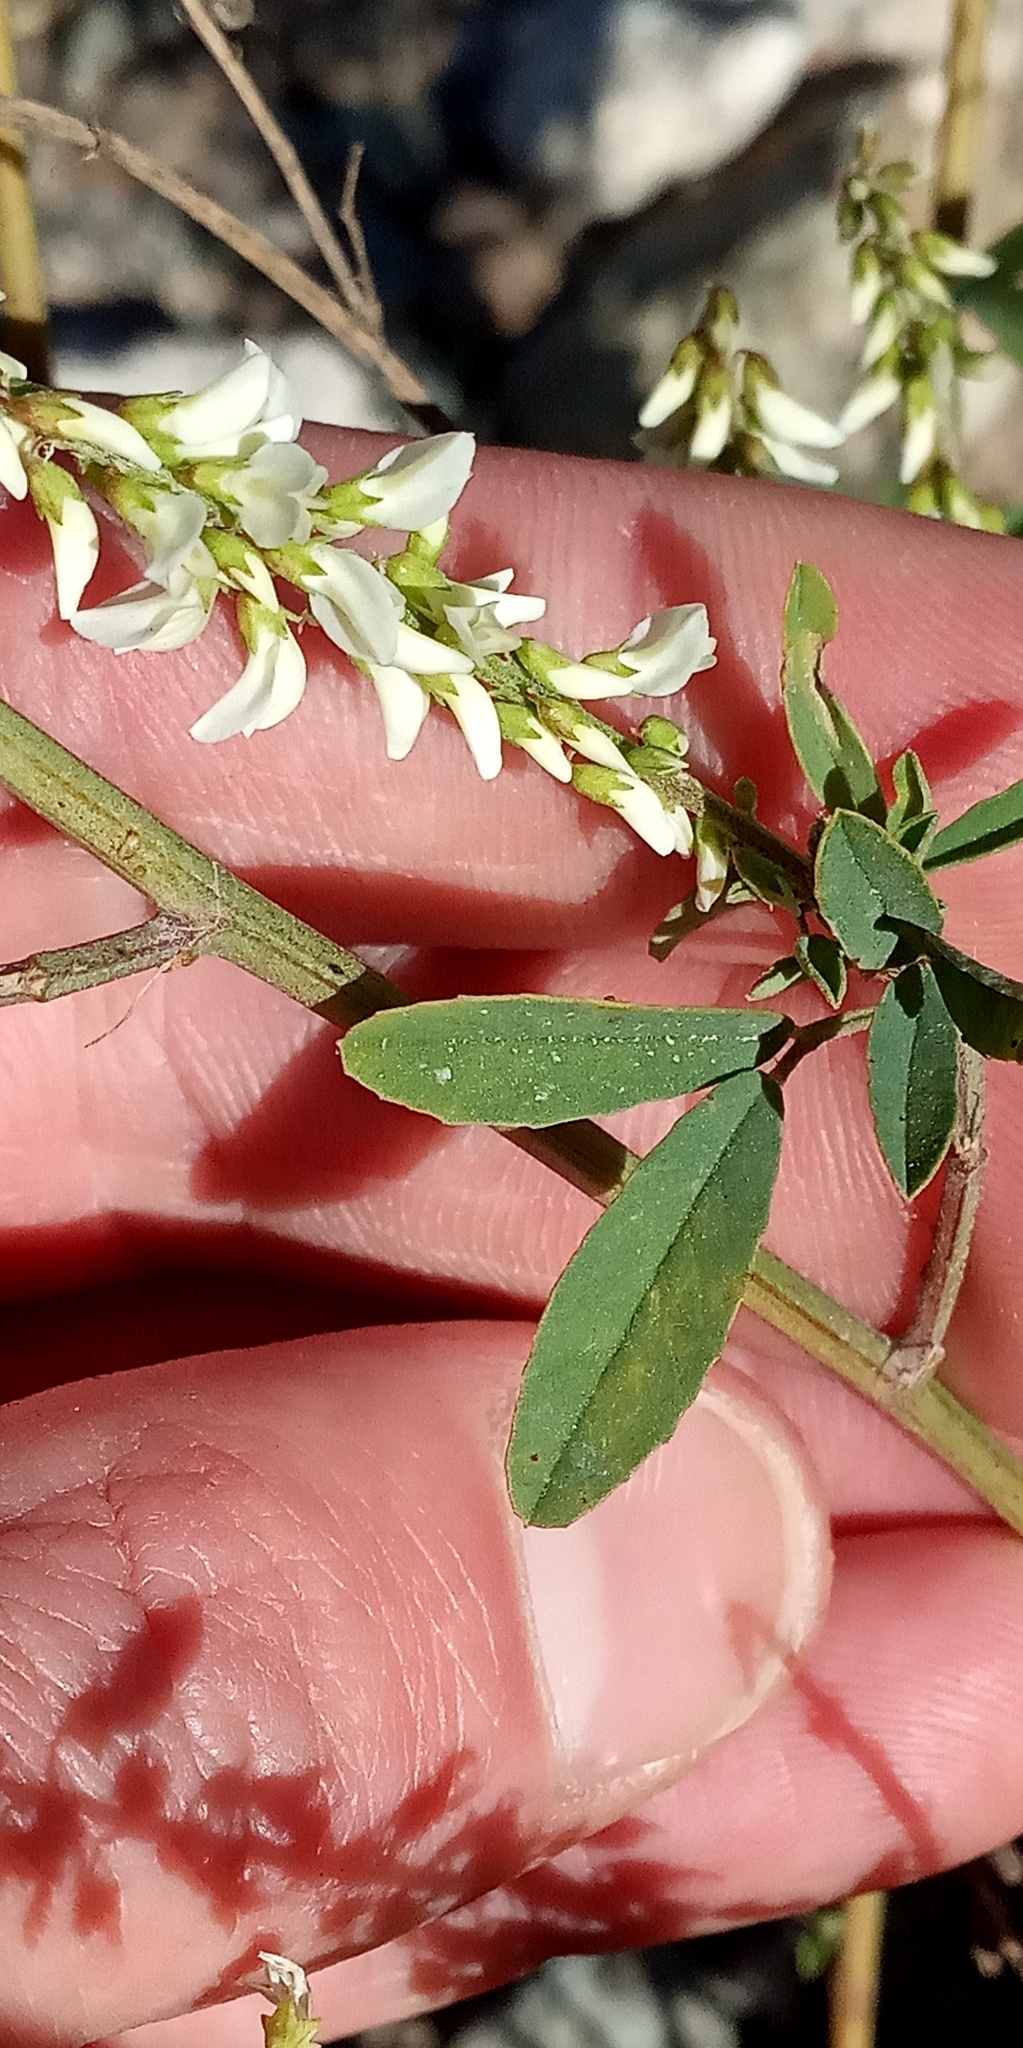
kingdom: Plantae
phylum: Tracheophyta
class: Magnoliopsida
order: Fabales
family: Fabaceae
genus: Melilotus
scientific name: Melilotus albus
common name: White melilot
